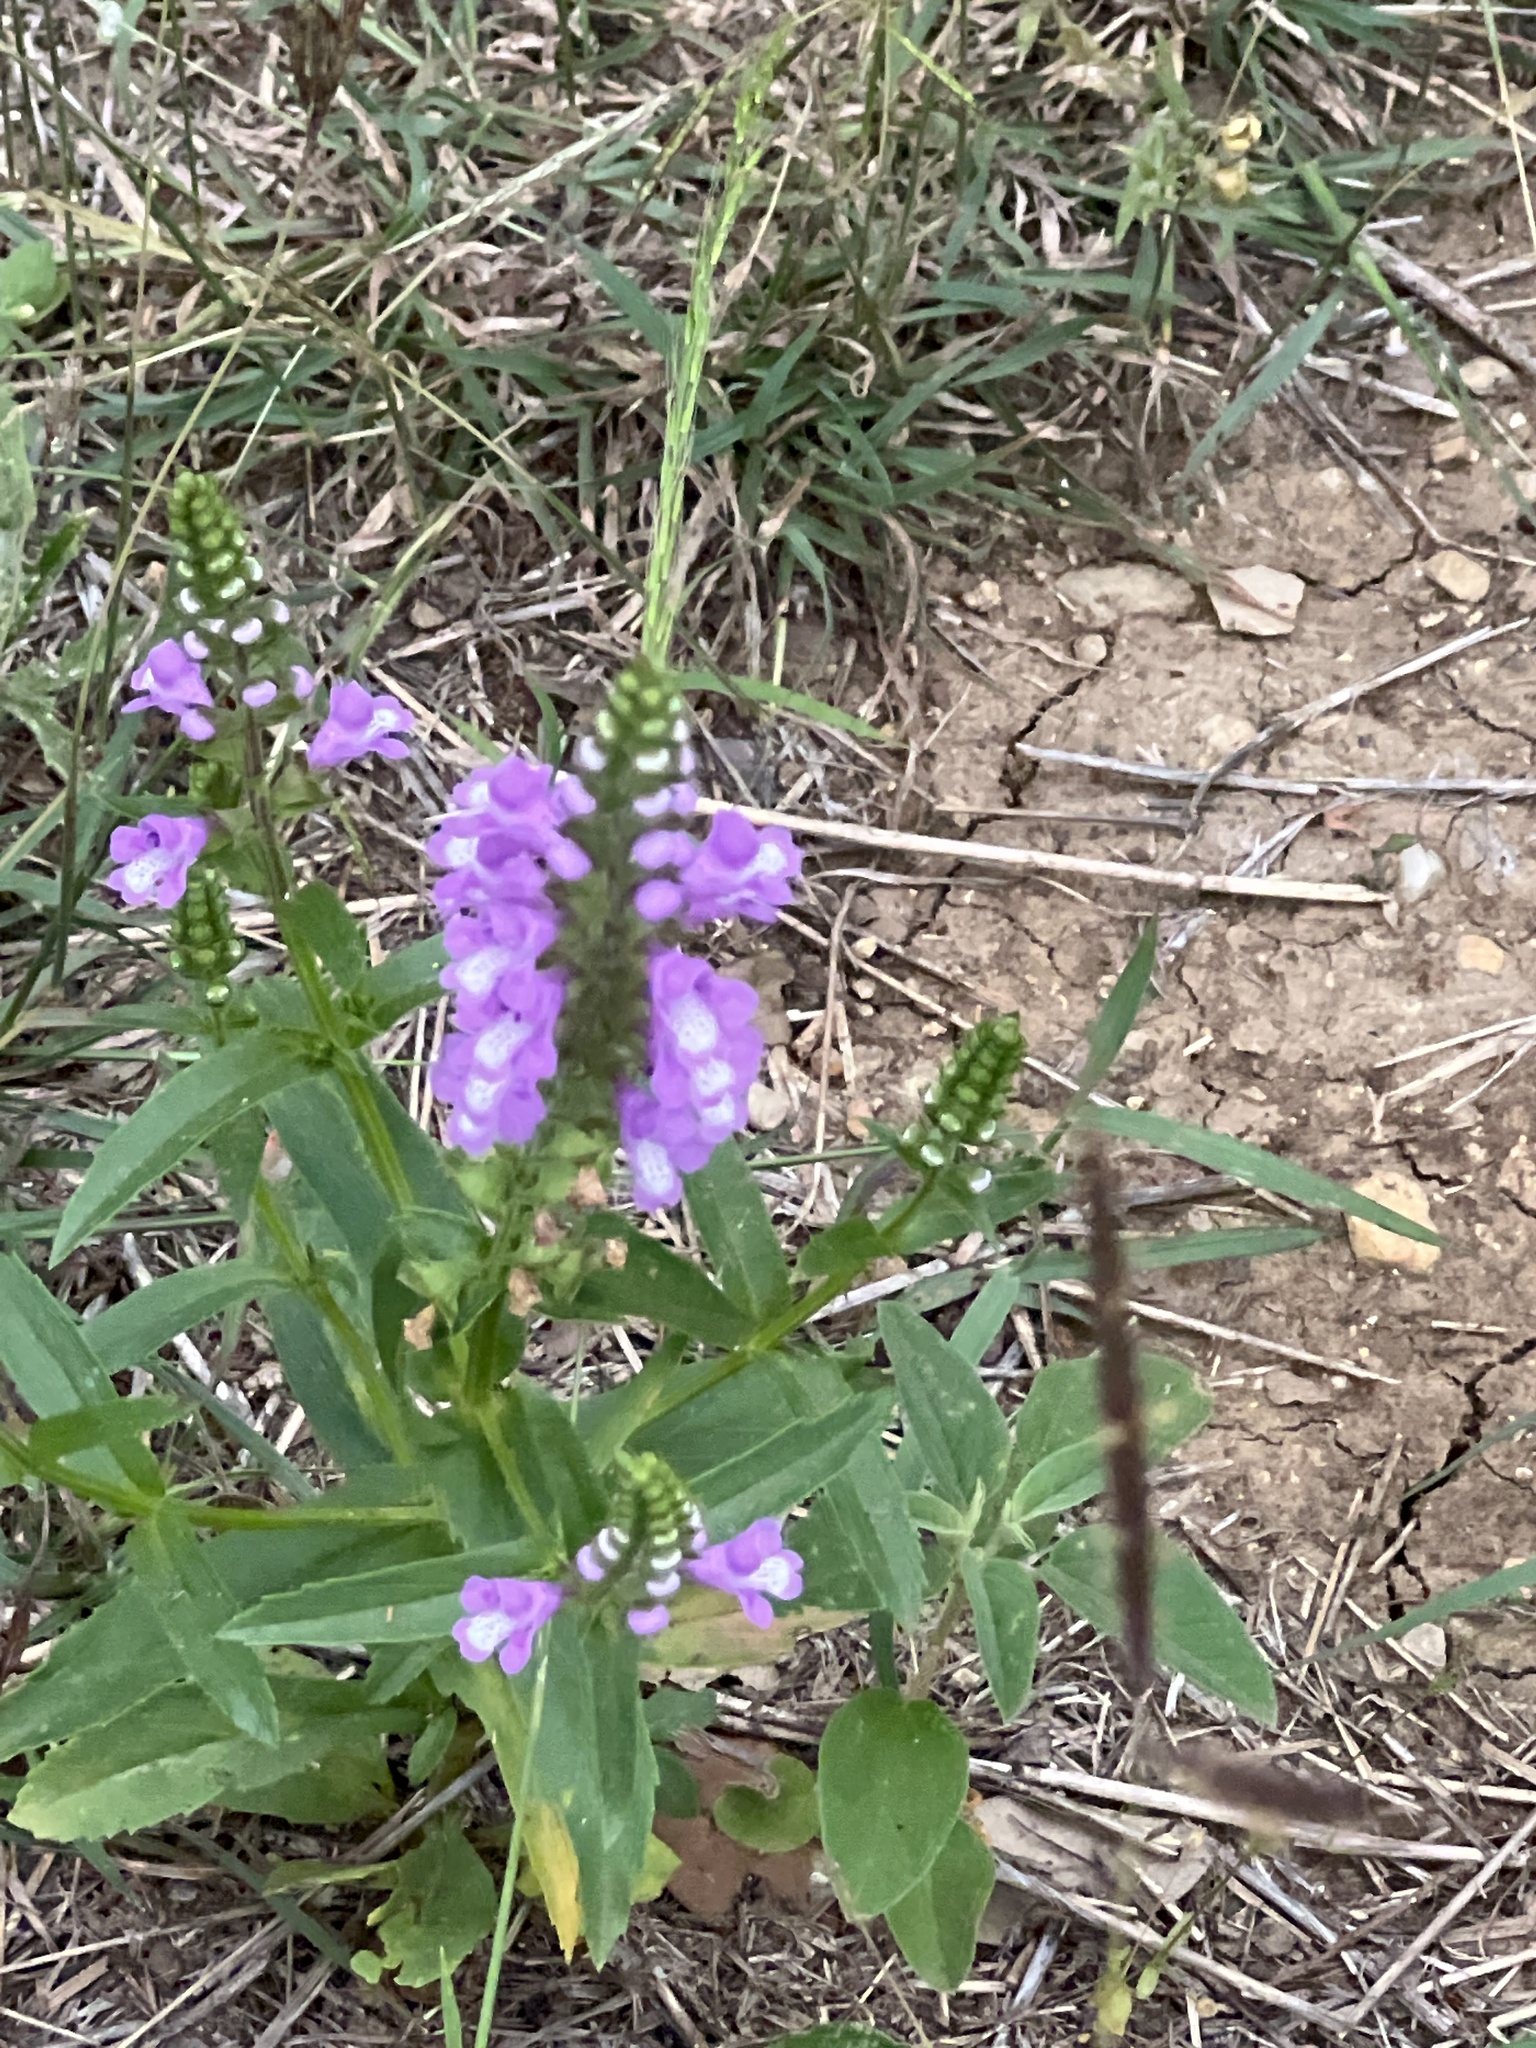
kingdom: Plantae
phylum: Tracheophyta
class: Magnoliopsida
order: Lamiales
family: Lamiaceae
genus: Warnockia
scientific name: Warnockia scutellarioides
